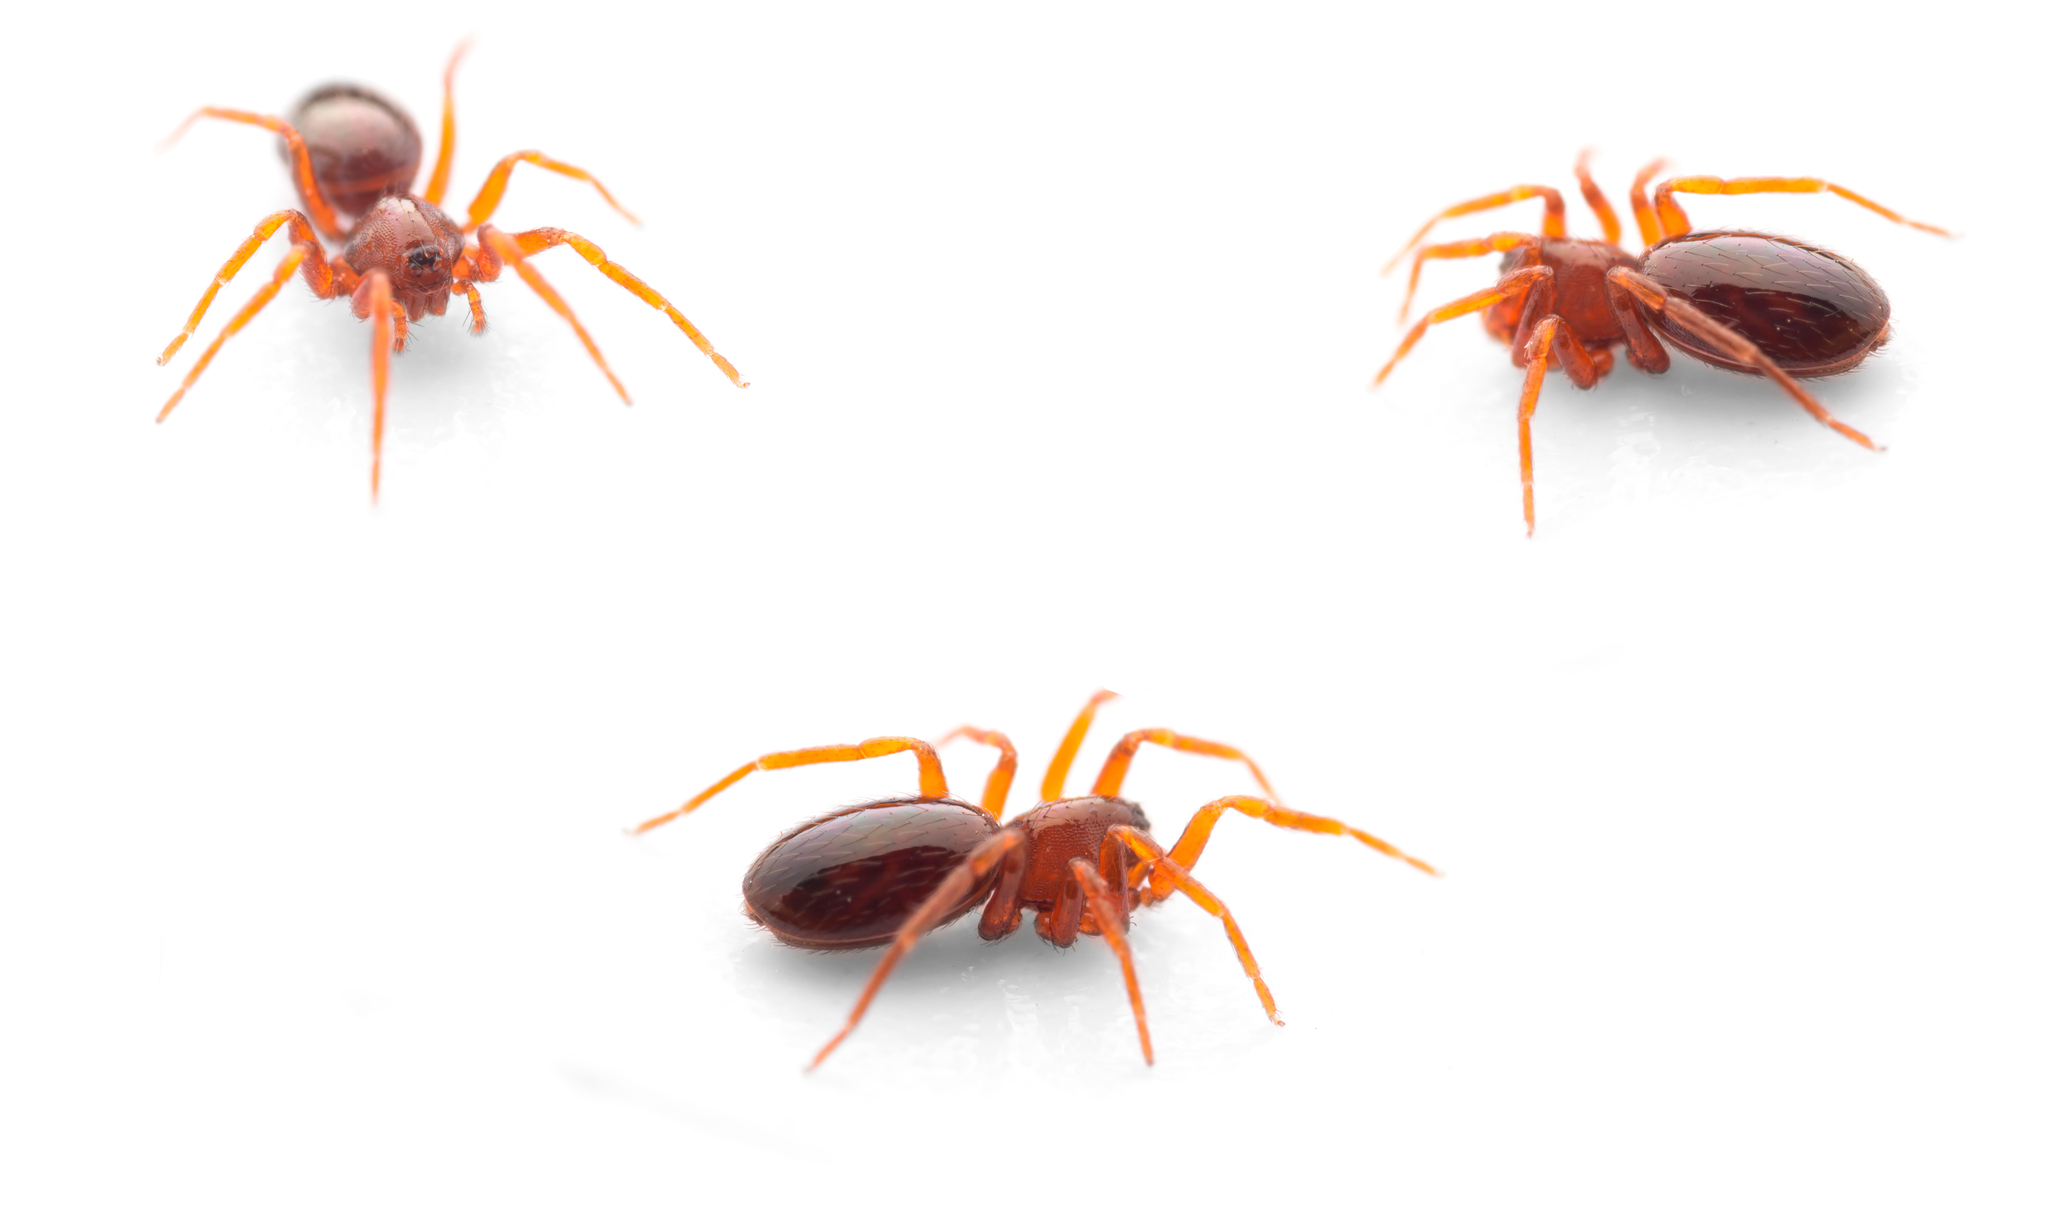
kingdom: Animalia
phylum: Arthropoda
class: Arachnida
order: Araneae
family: Oonopidae
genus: Silhouettella
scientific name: Silhouettella loricatula
